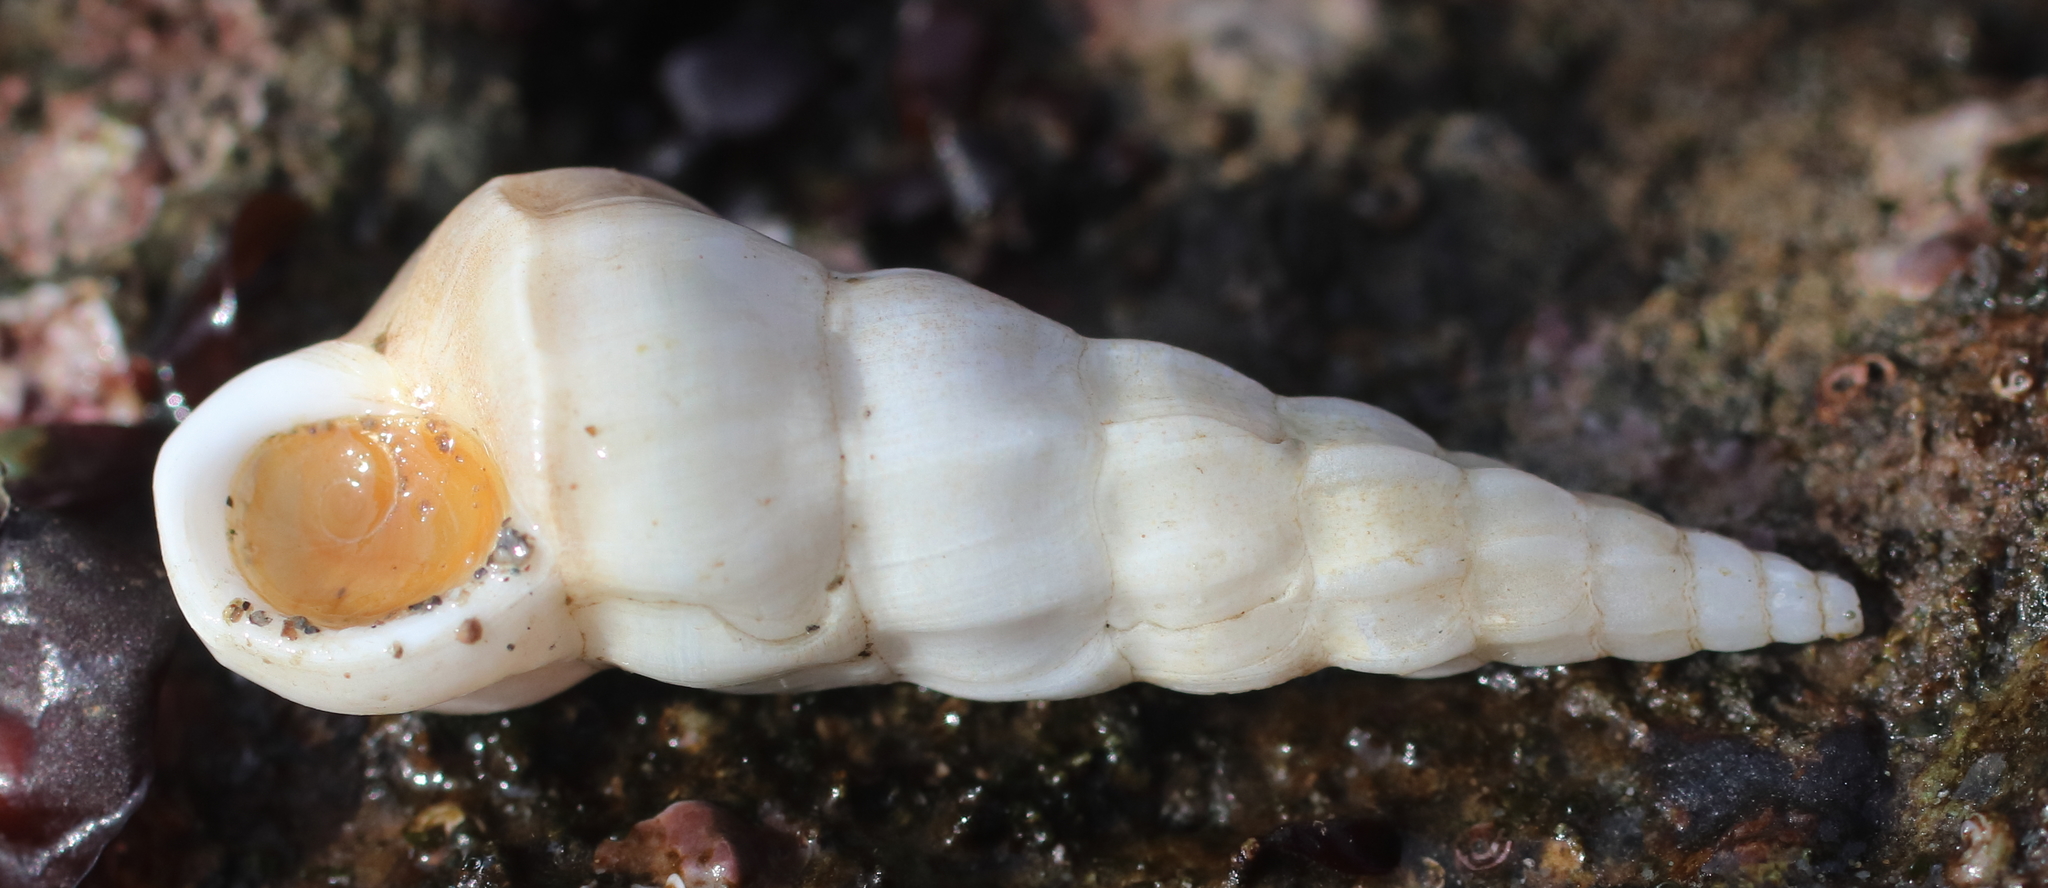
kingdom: Animalia
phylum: Mollusca
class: Gastropoda
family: Epitoniidae
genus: Opalia
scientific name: Opalia wroblewskyi
